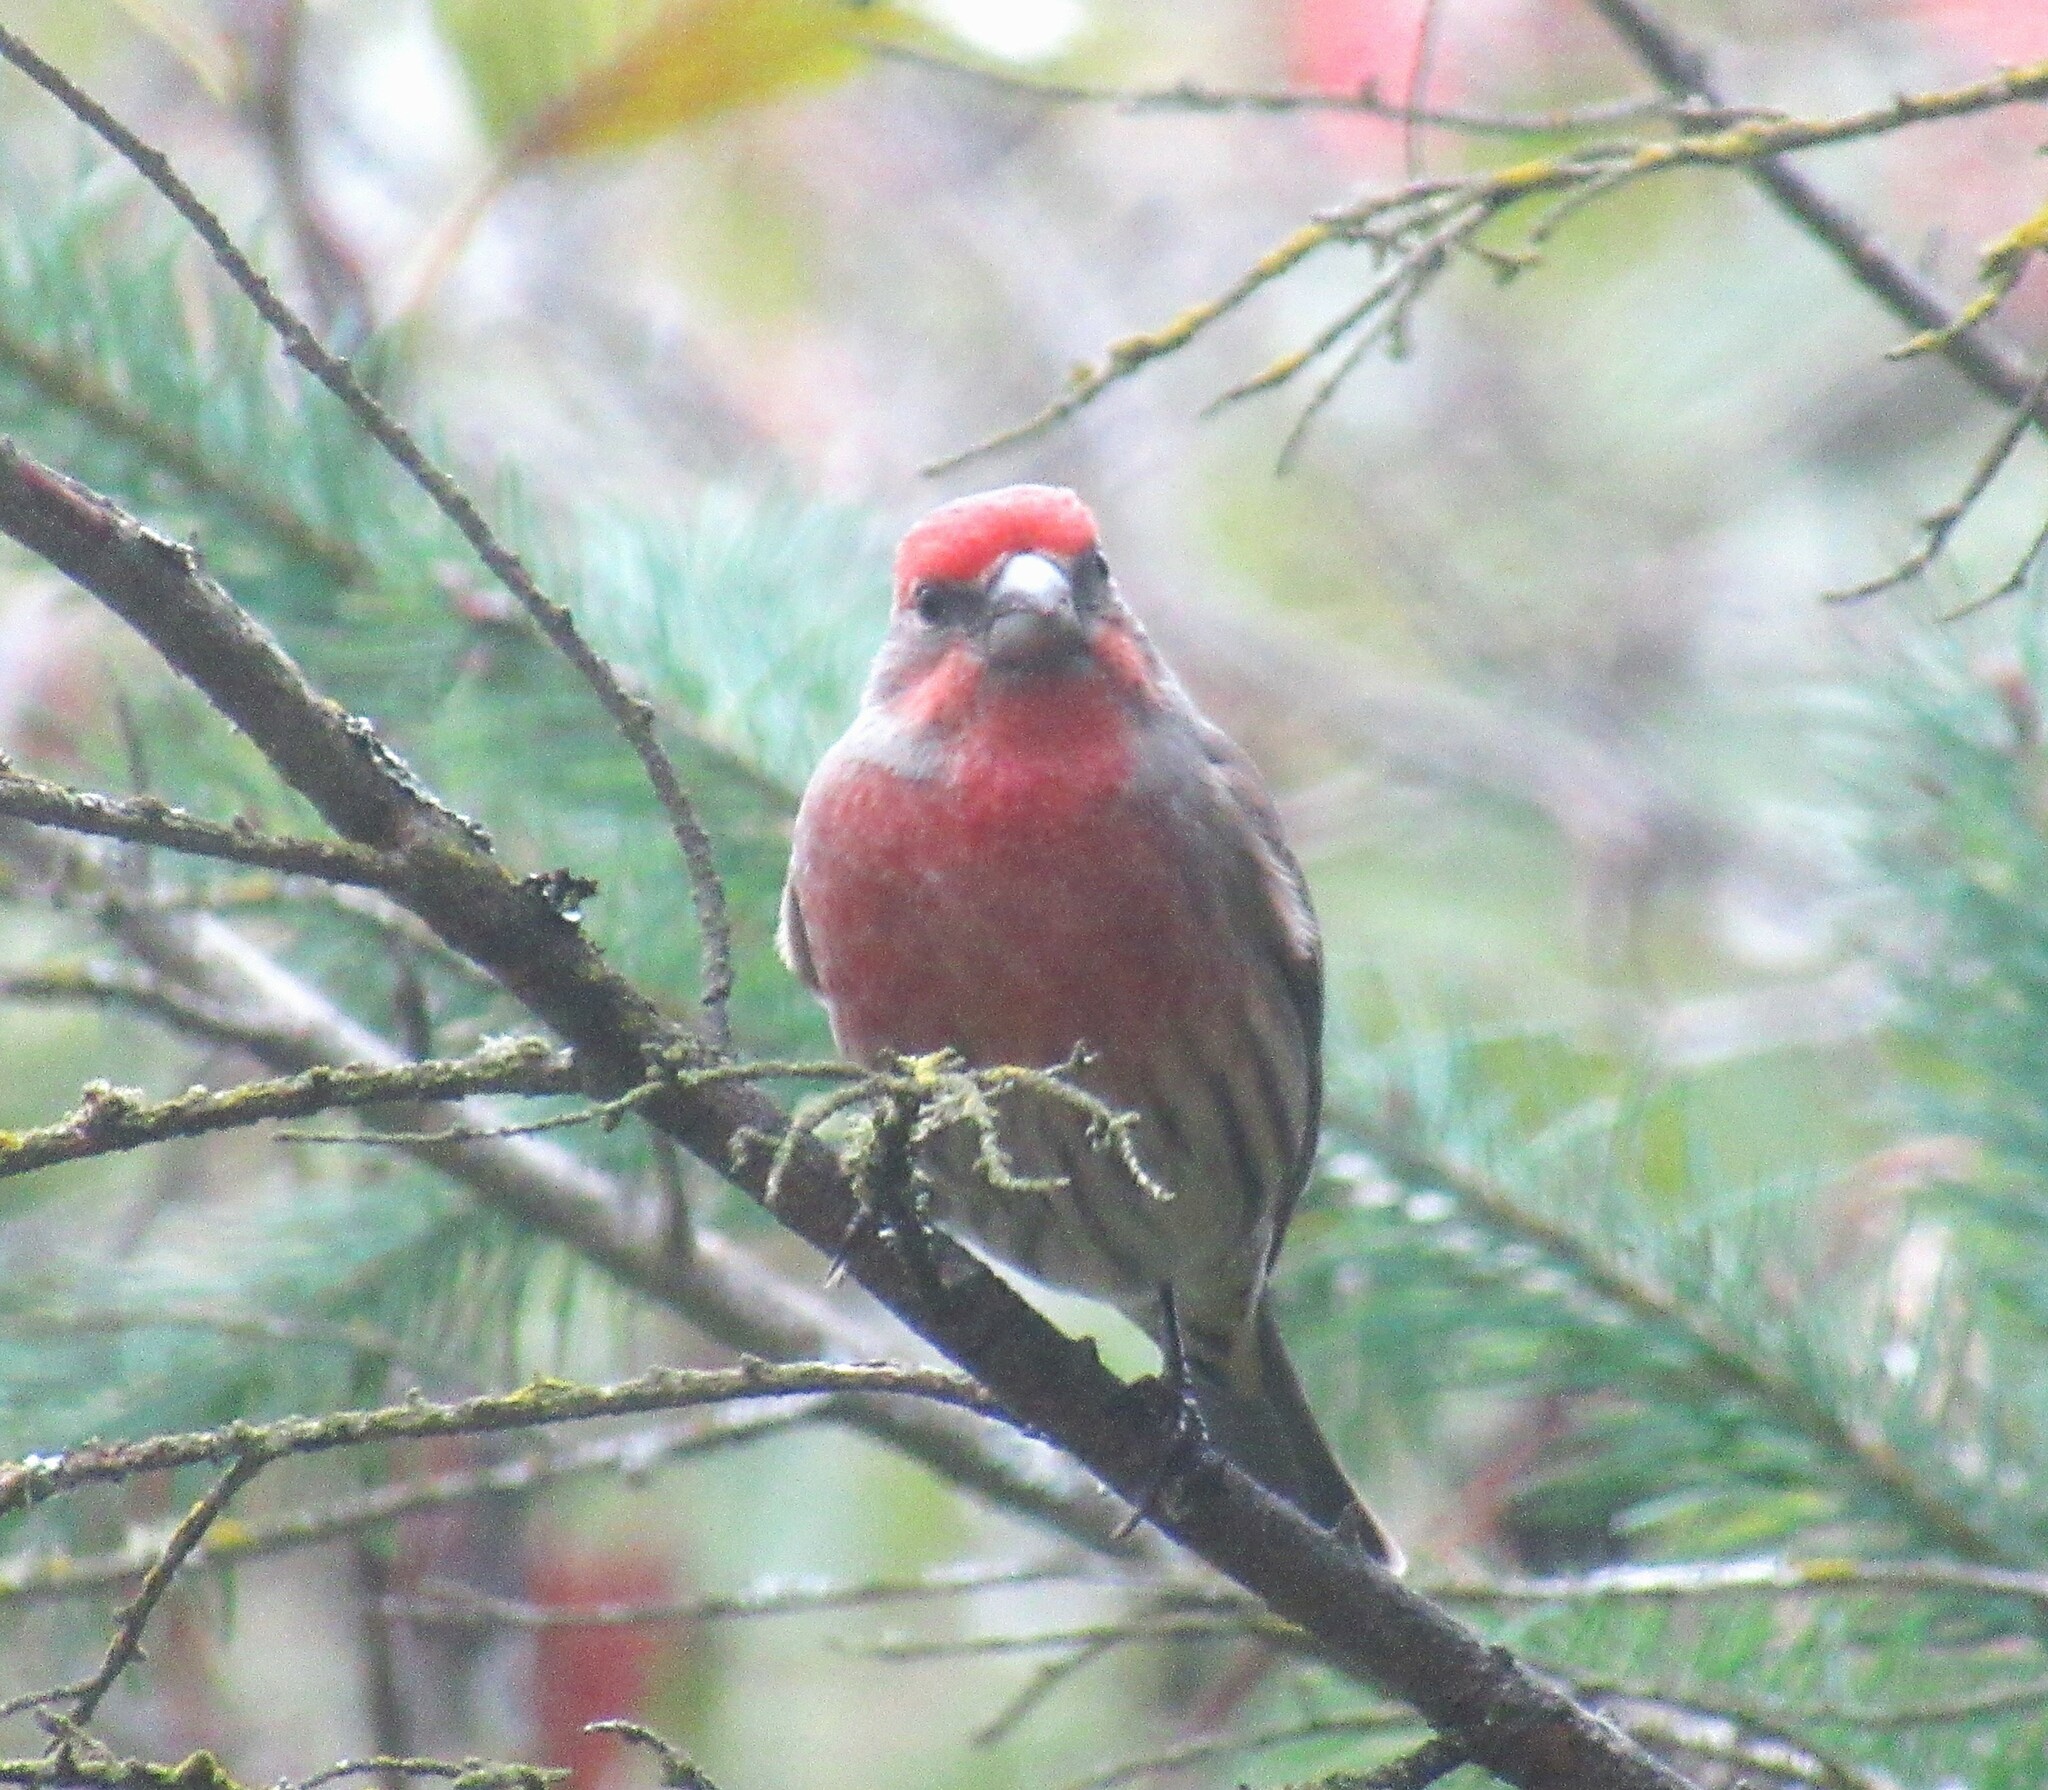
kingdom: Animalia
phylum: Chordata
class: Aves
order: Passeriformes
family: Fringillidae
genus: Haemorhous
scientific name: Haemorhous mexicanus
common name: House finch
